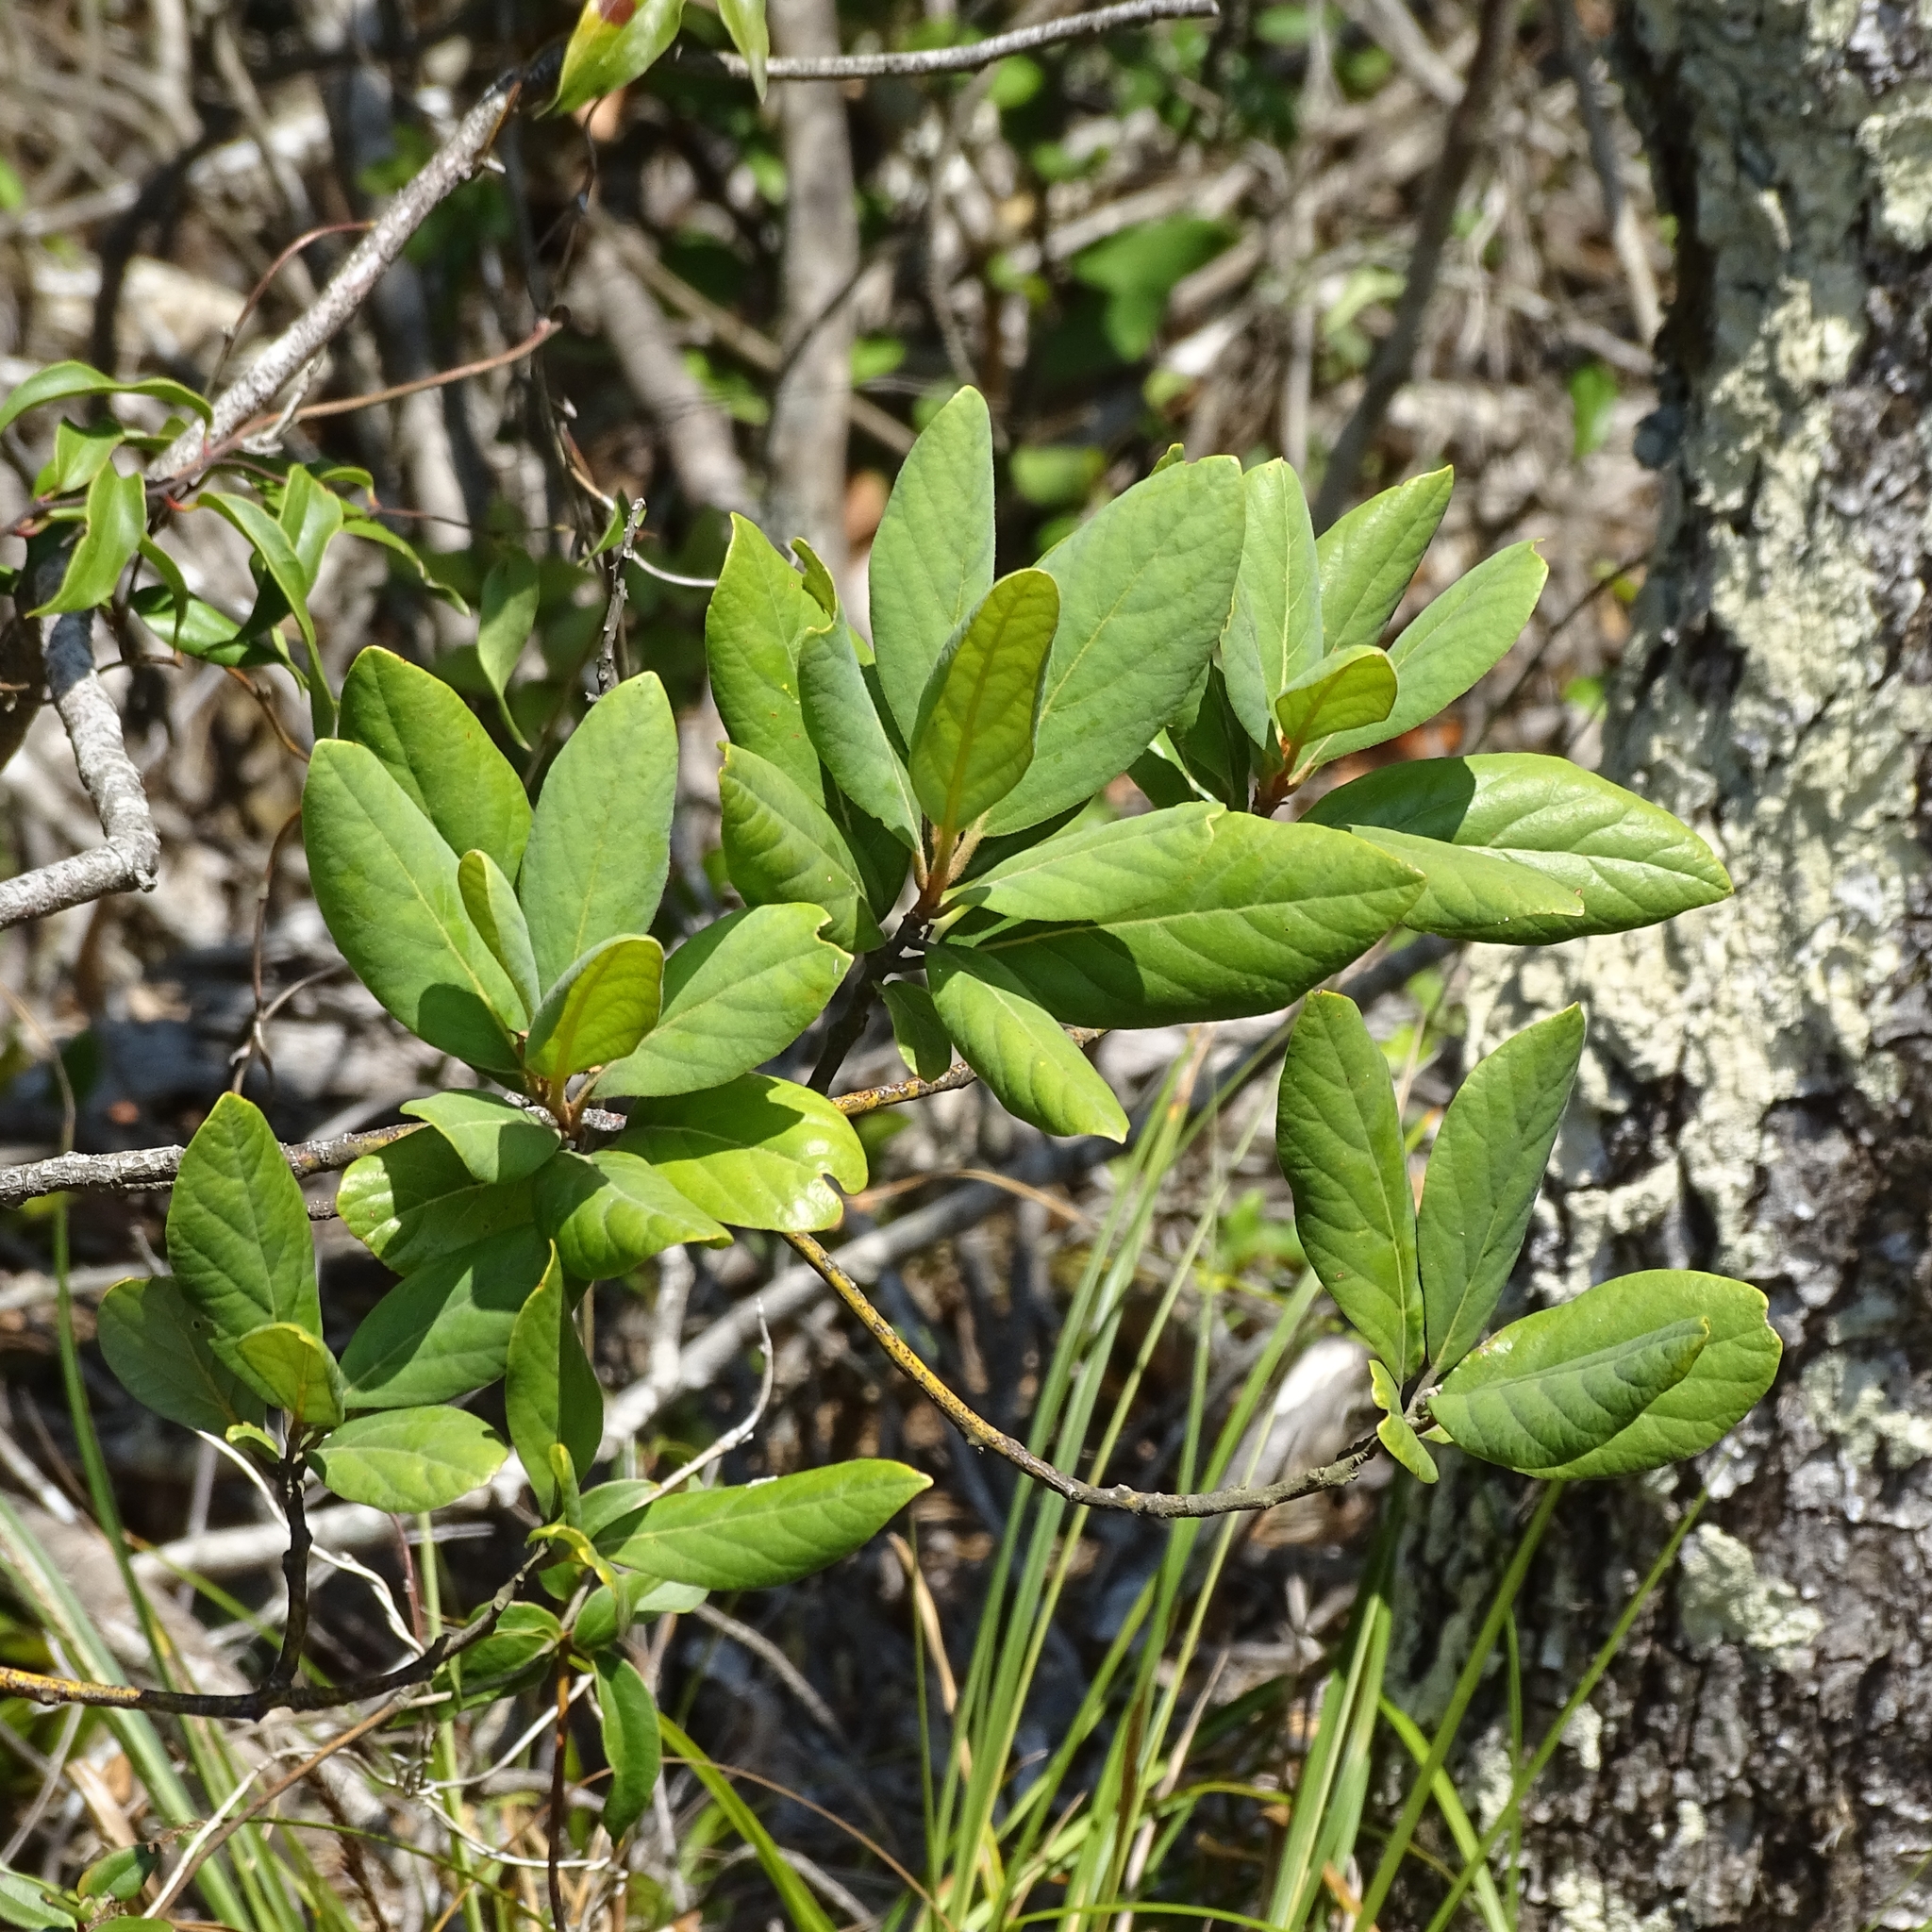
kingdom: Plantae
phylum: Tracheophyta
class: Magnoliopsida
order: Laurales
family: Lauraceae
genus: Persea
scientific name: Persea lingue
